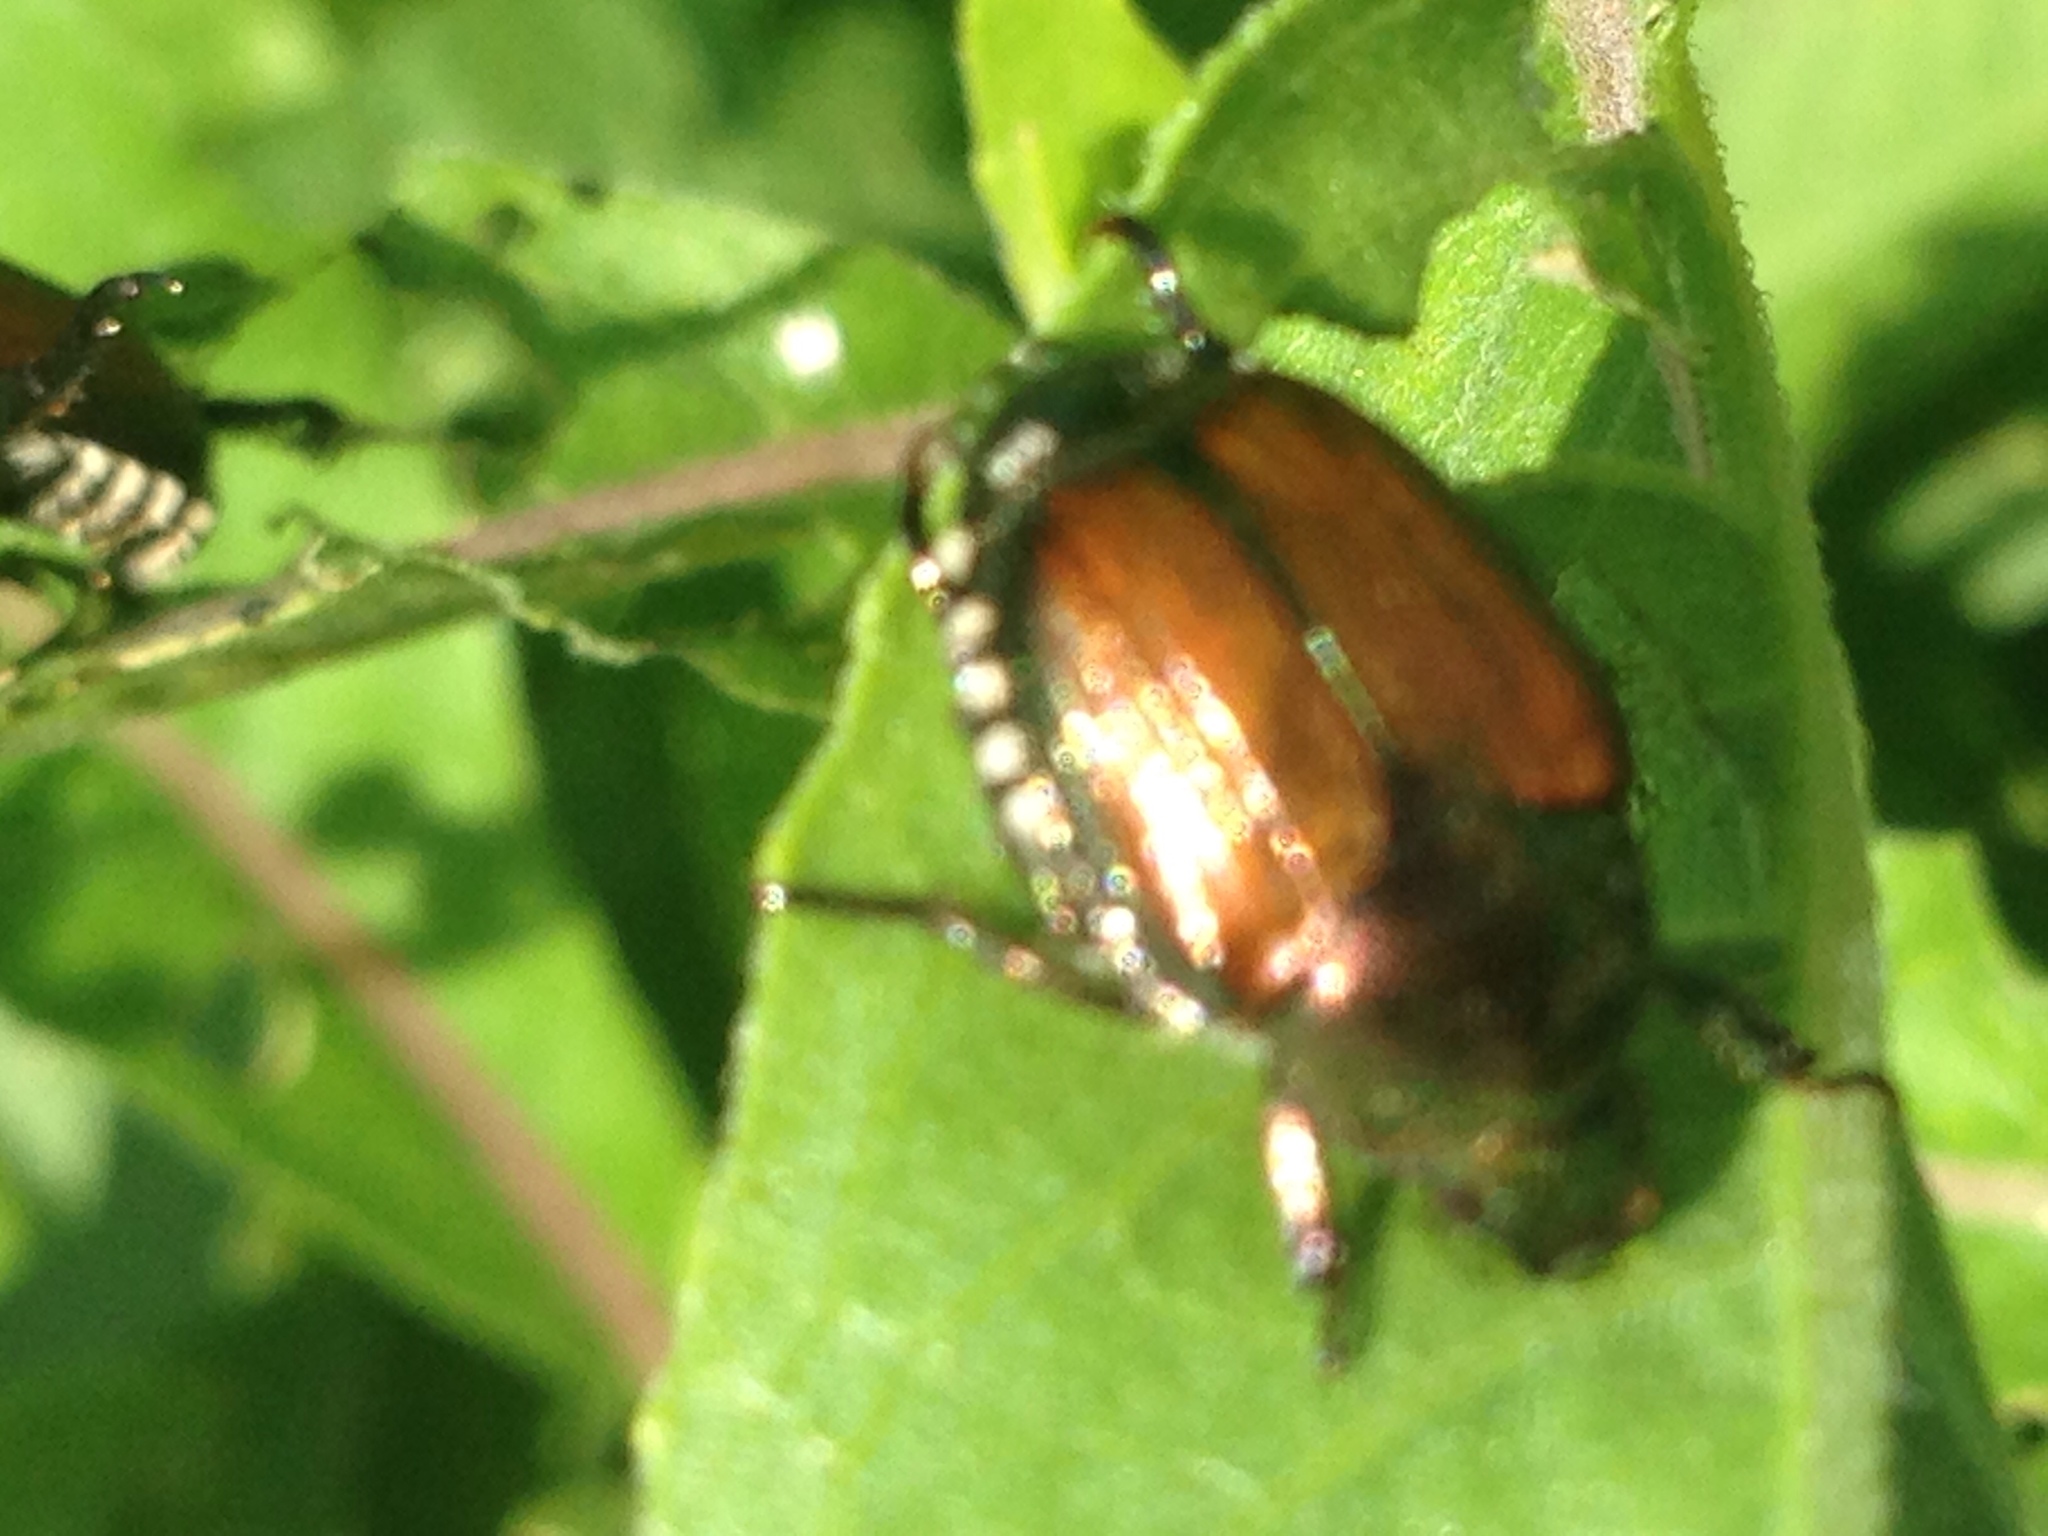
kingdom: Animalia
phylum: Arthropoda
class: Insecta
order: Coleoptera
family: Scarabaeidae
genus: Popillia
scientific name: Popillia japonica
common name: Japanese beetle
